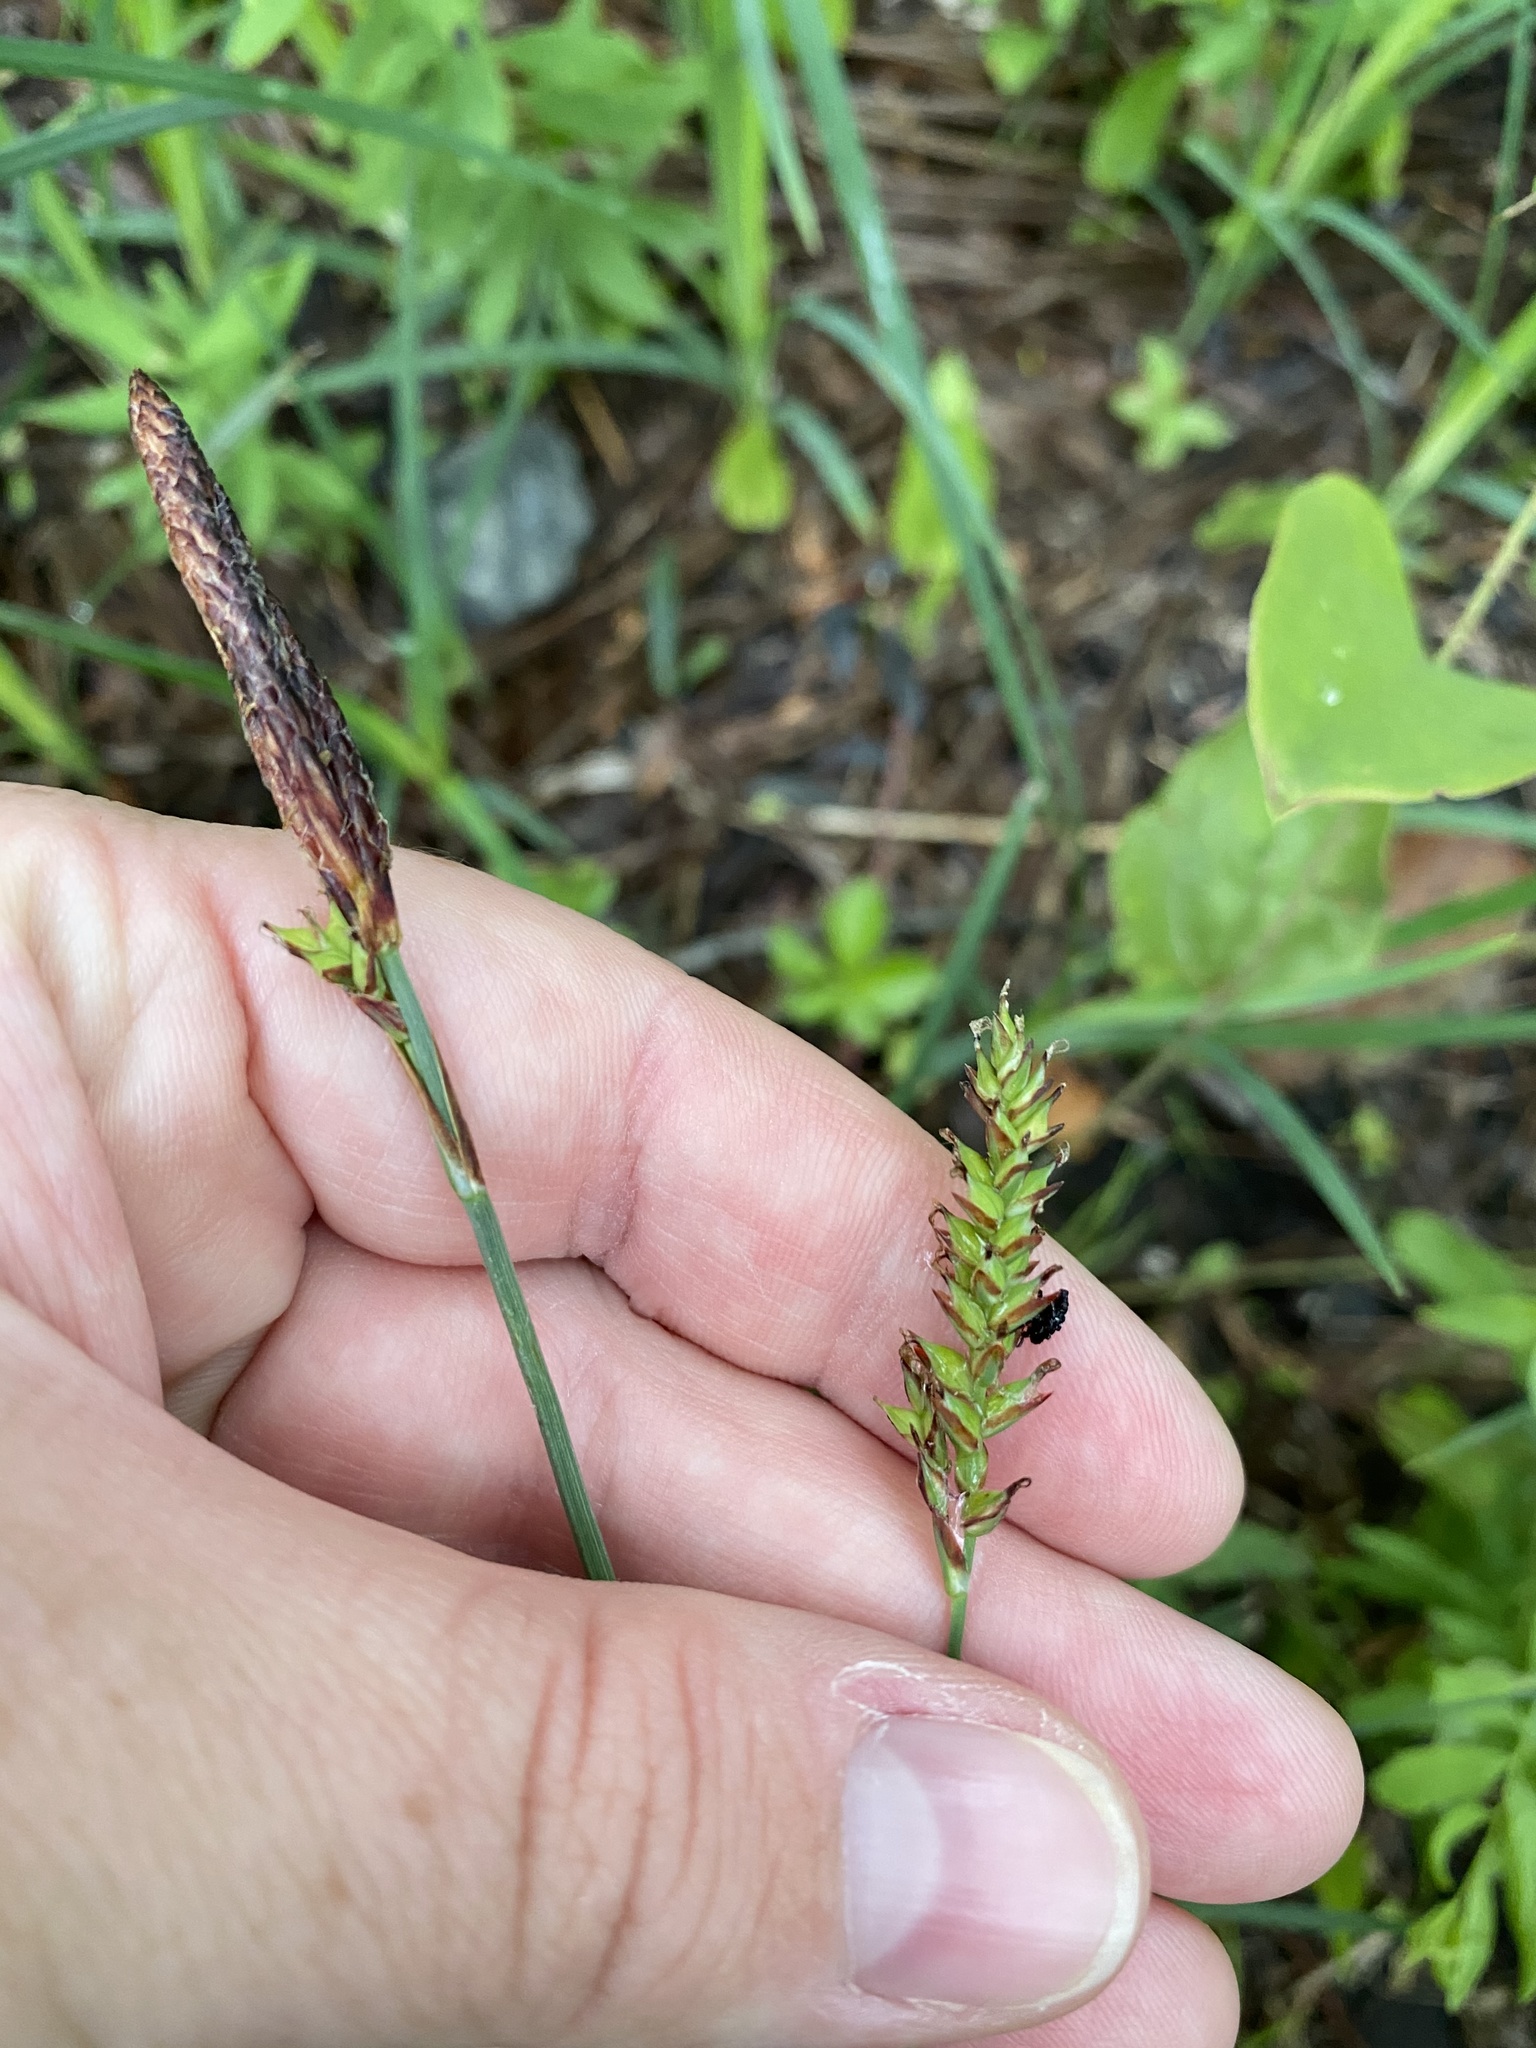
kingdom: Plantae
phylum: Tracheophyta
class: Liliopsida
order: Poales
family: Cyperaceae
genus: Carex
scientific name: Carex polymorpha
